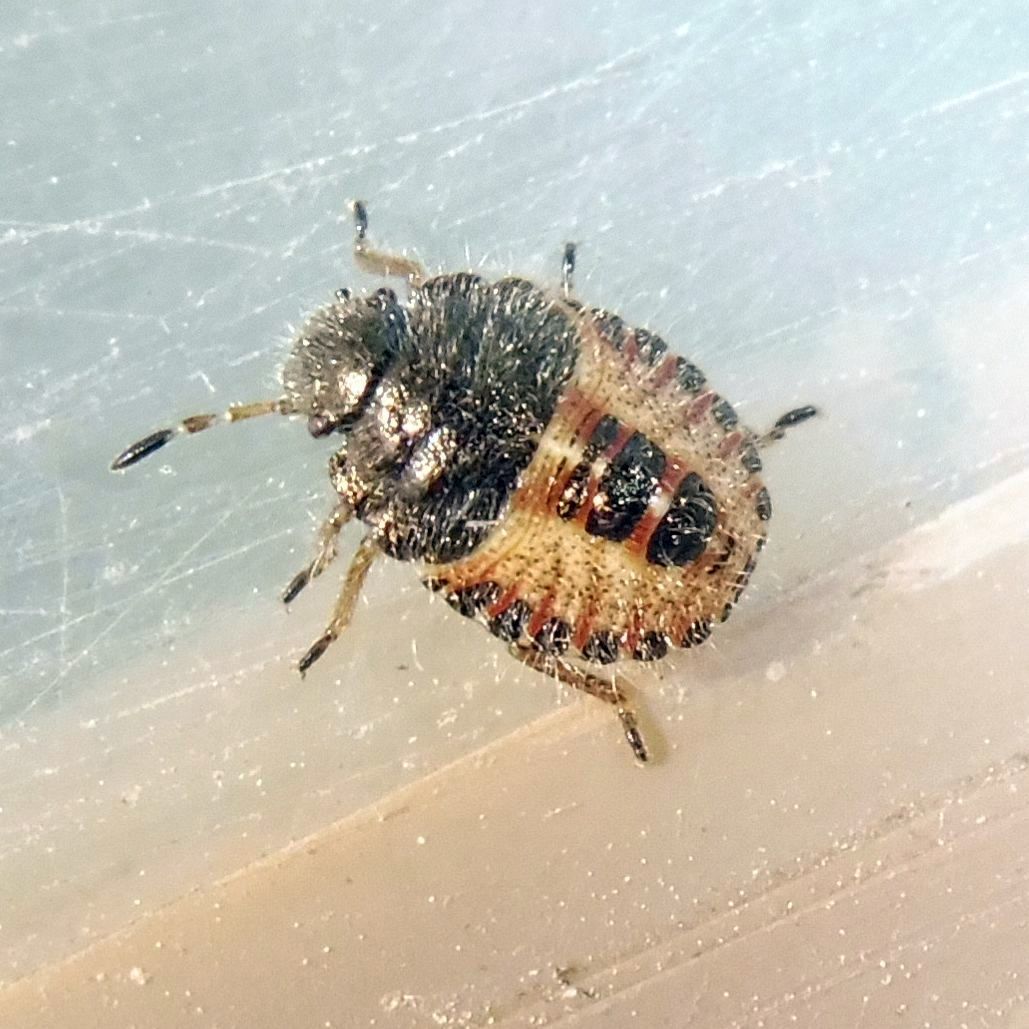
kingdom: Animalia
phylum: Arthropoda
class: Insecta
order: Hemiptera
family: Pentatomidae
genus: Dolycoris
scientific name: Dolycoris baccarum
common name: Sloe bug
